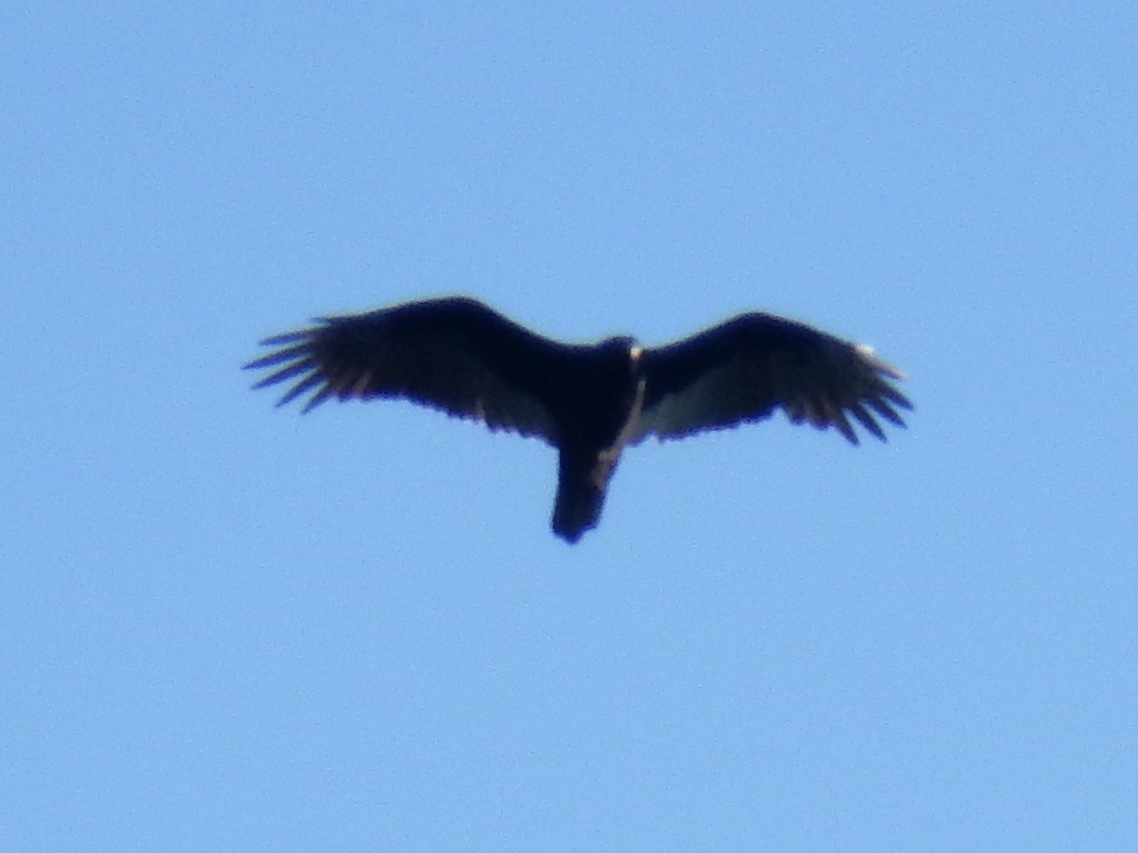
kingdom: Animalia
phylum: Chordata
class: Aves
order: Accipitriformes
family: Cathartidae
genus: Cathartes
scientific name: Cathartes aura
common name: Turkey vulture
